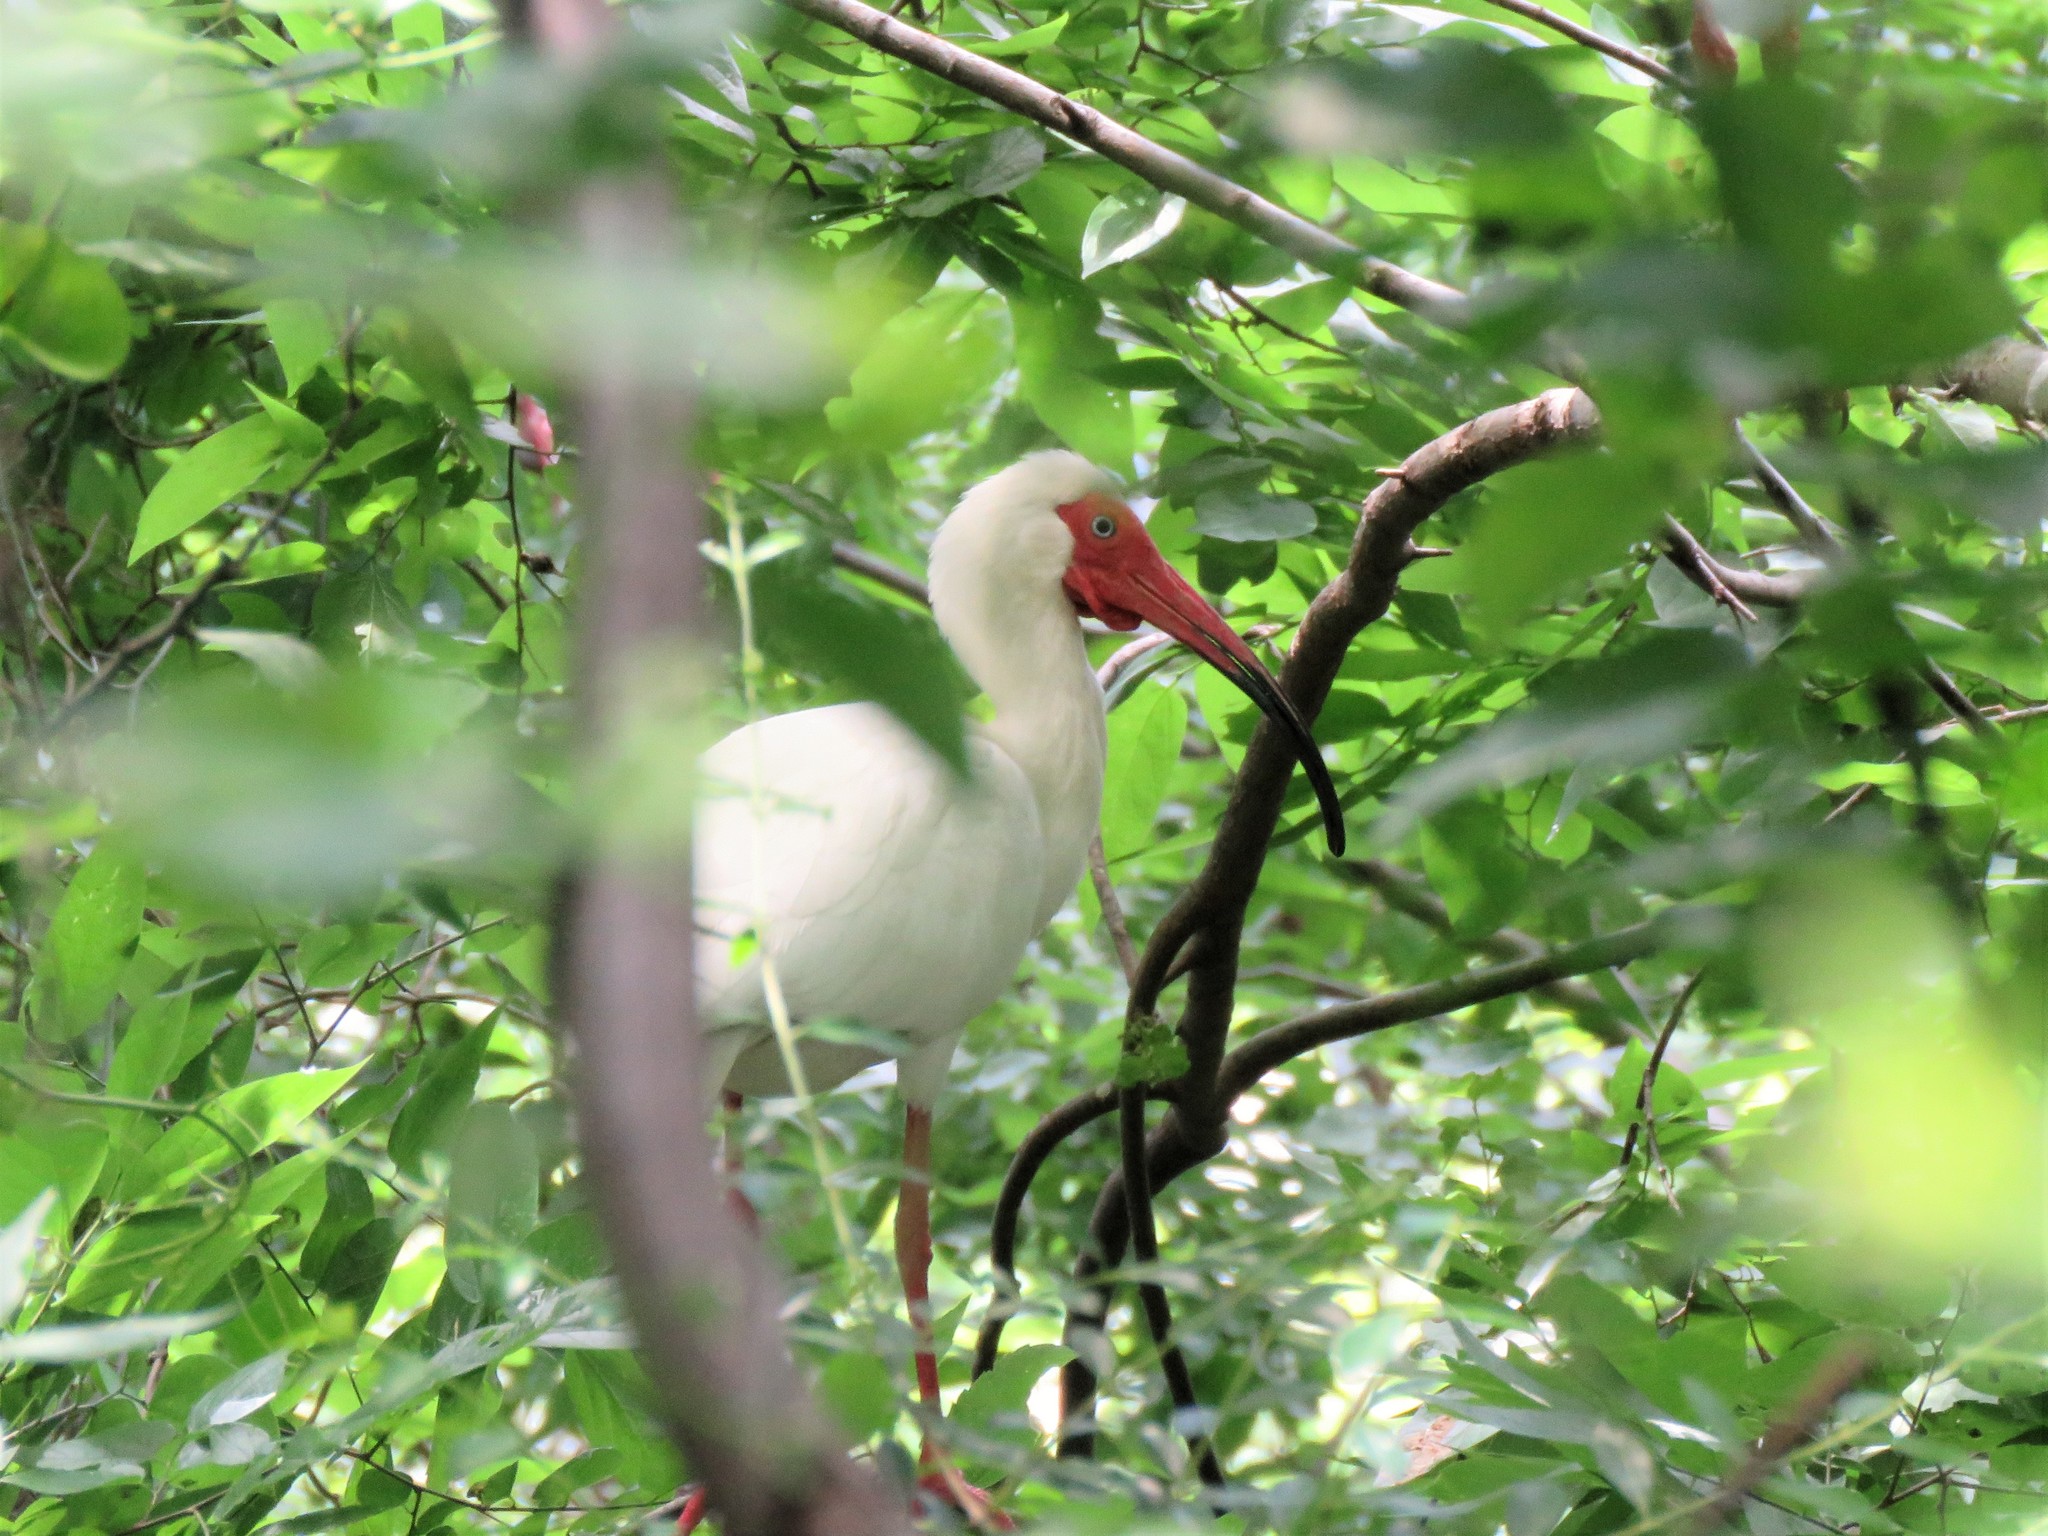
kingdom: Animalia
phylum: Chordata
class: Aves
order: Pelecaniformes
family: Threskiornithidae
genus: Eudocimus
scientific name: Eudocimus albus
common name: White ibis
